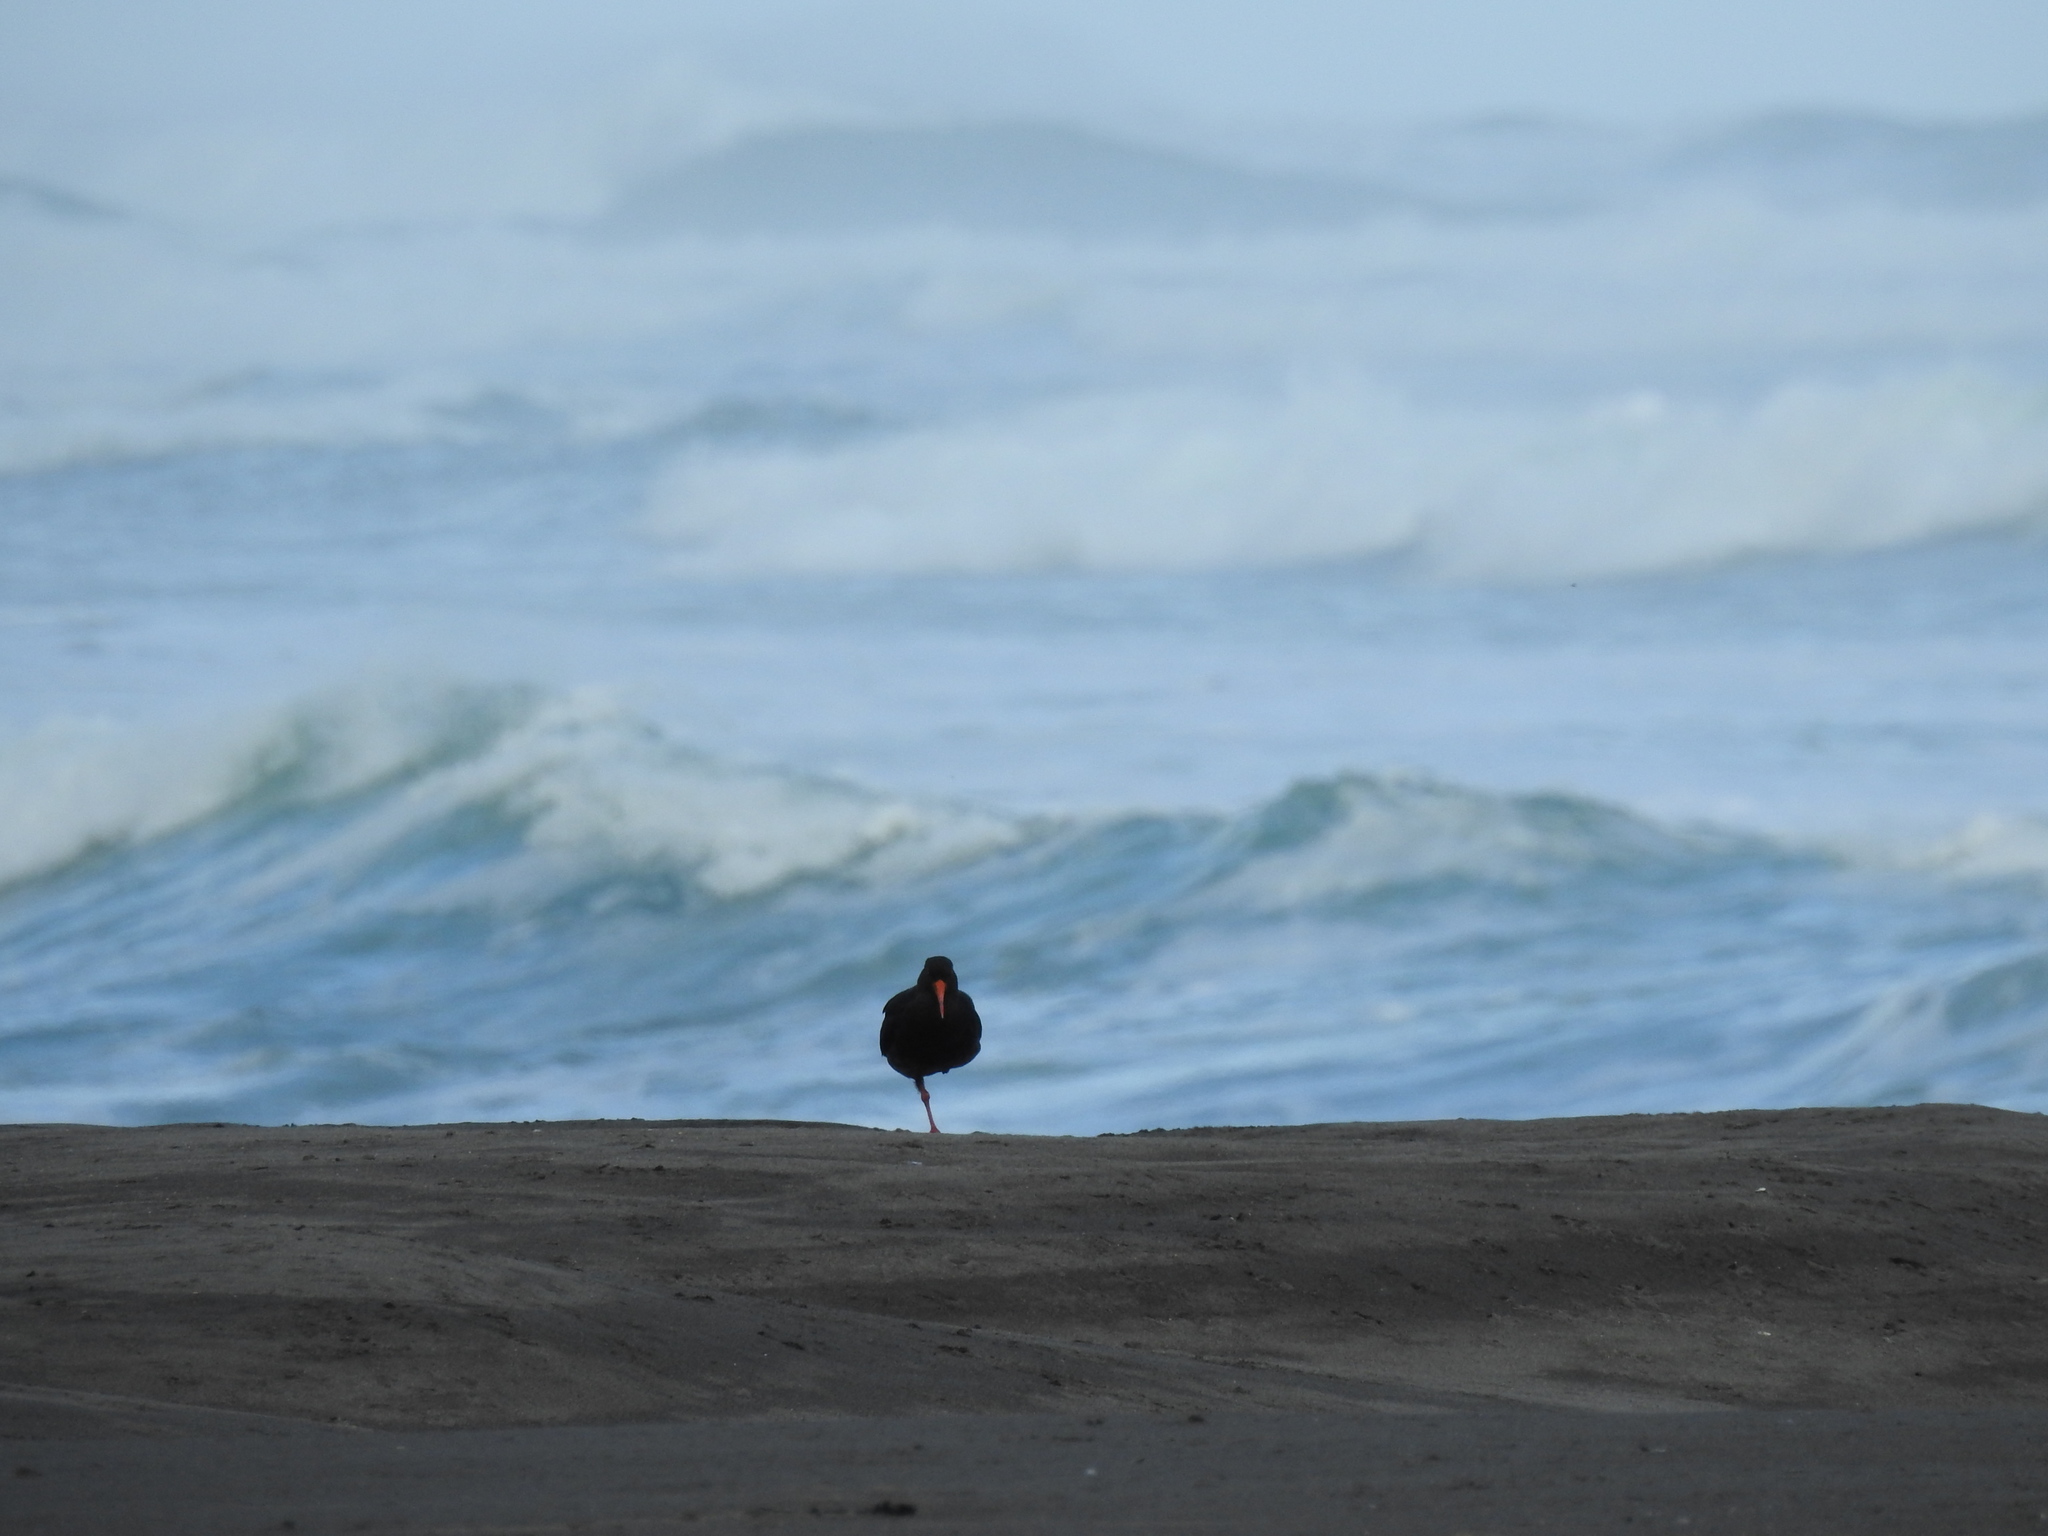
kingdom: Animalia
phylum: Chordata
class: Aves
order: Charadriiformes
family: Haematopodidae
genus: Haematopus
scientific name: Haematopus unicolor
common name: Variable oystercatcher
